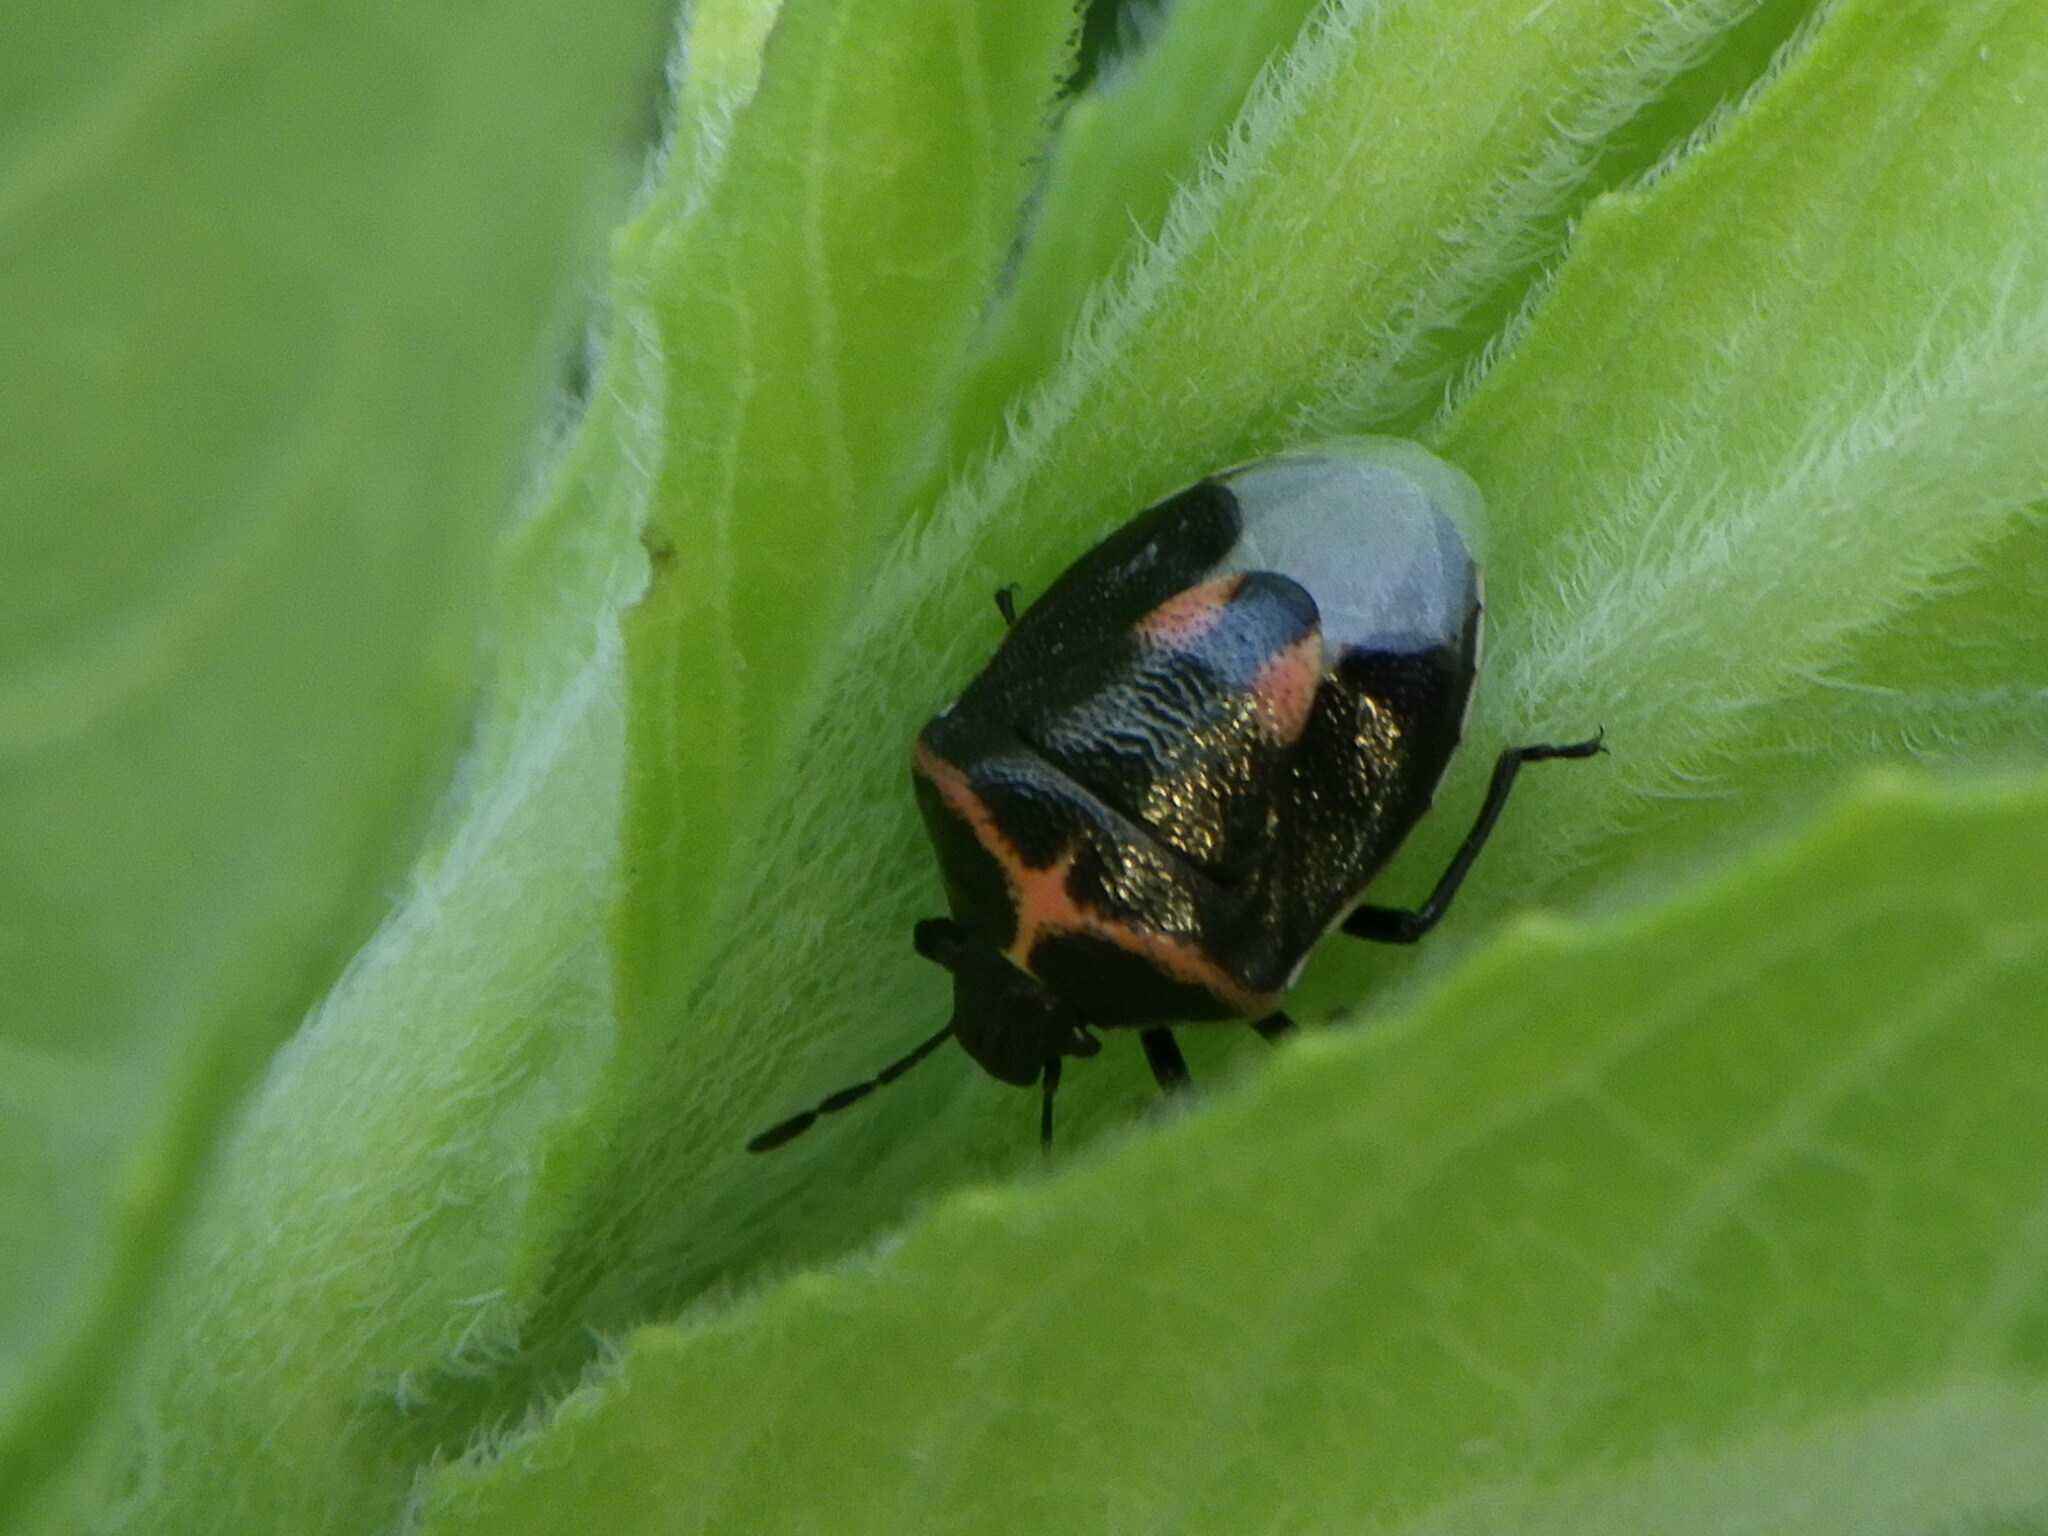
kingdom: Animalia
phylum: Arthropoda
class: Insecta
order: Hemiptera
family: Pentatomidae
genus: Cosmopepla
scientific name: Cosmopepla lintneriana
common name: Twice-stabbed stink bug
